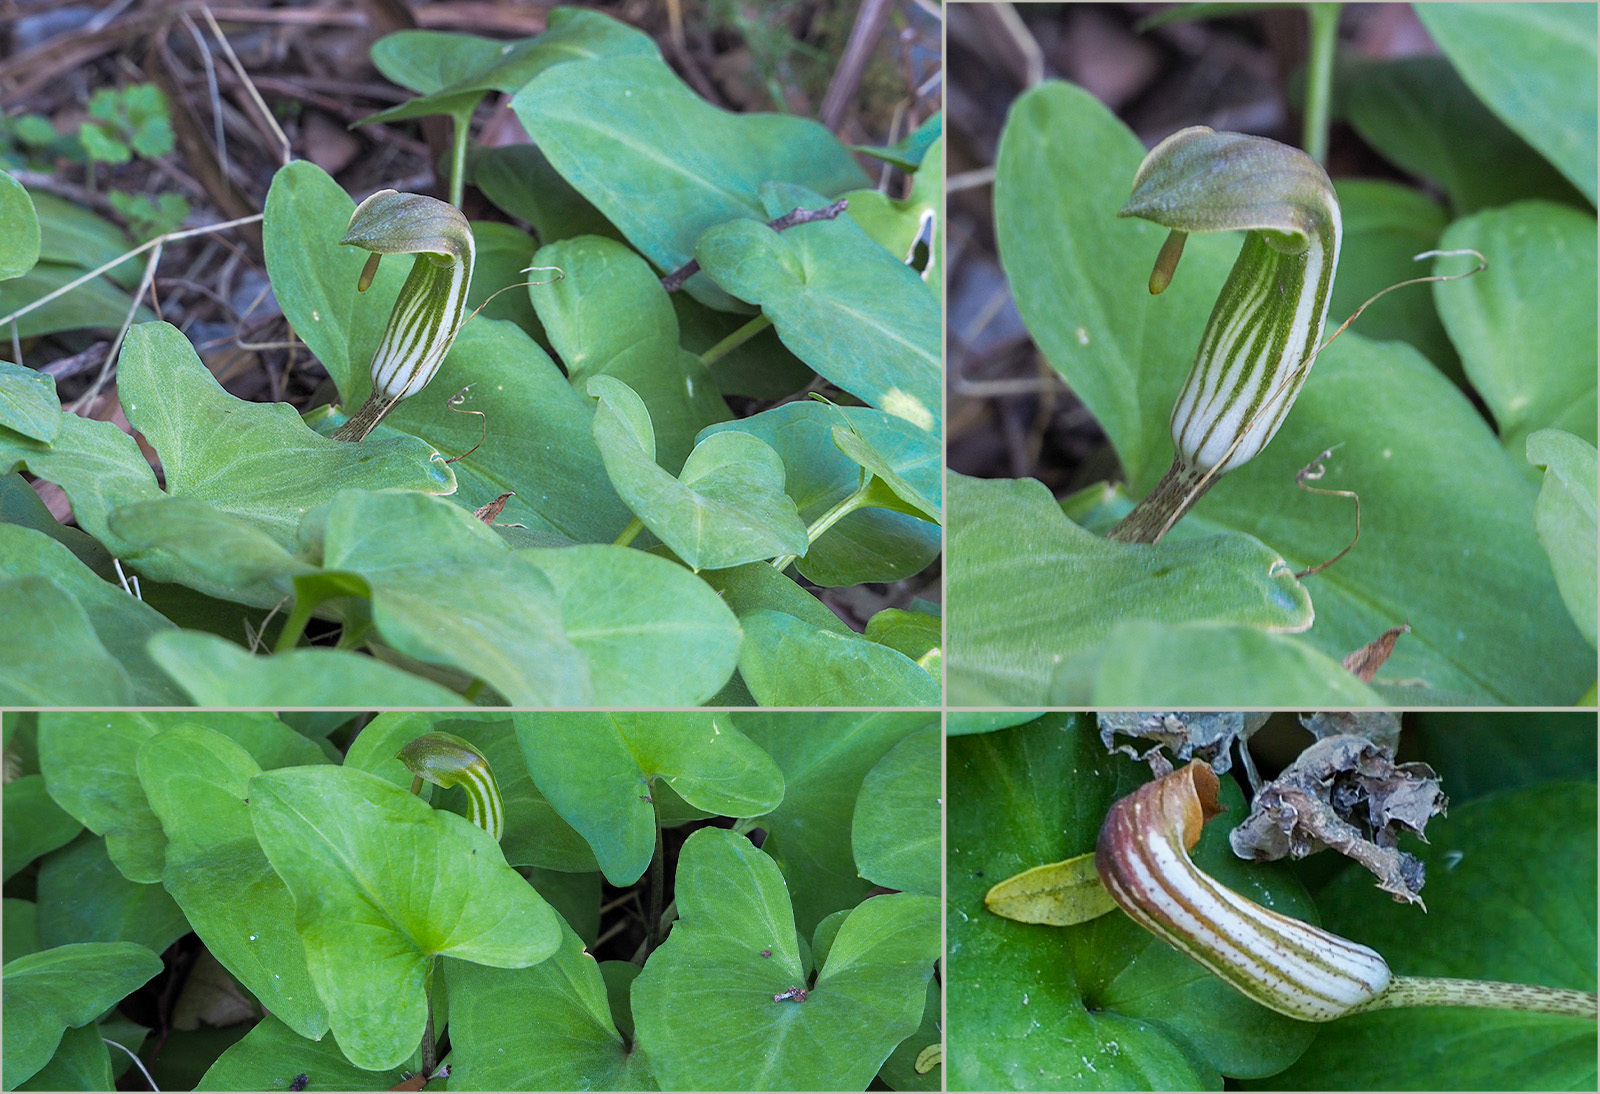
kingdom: Plantae
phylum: Tracheophyta
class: Liliopsida
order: Alismatales
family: Araceae
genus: Arisarum
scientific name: Arisarum vulgare
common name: Common arisarum
